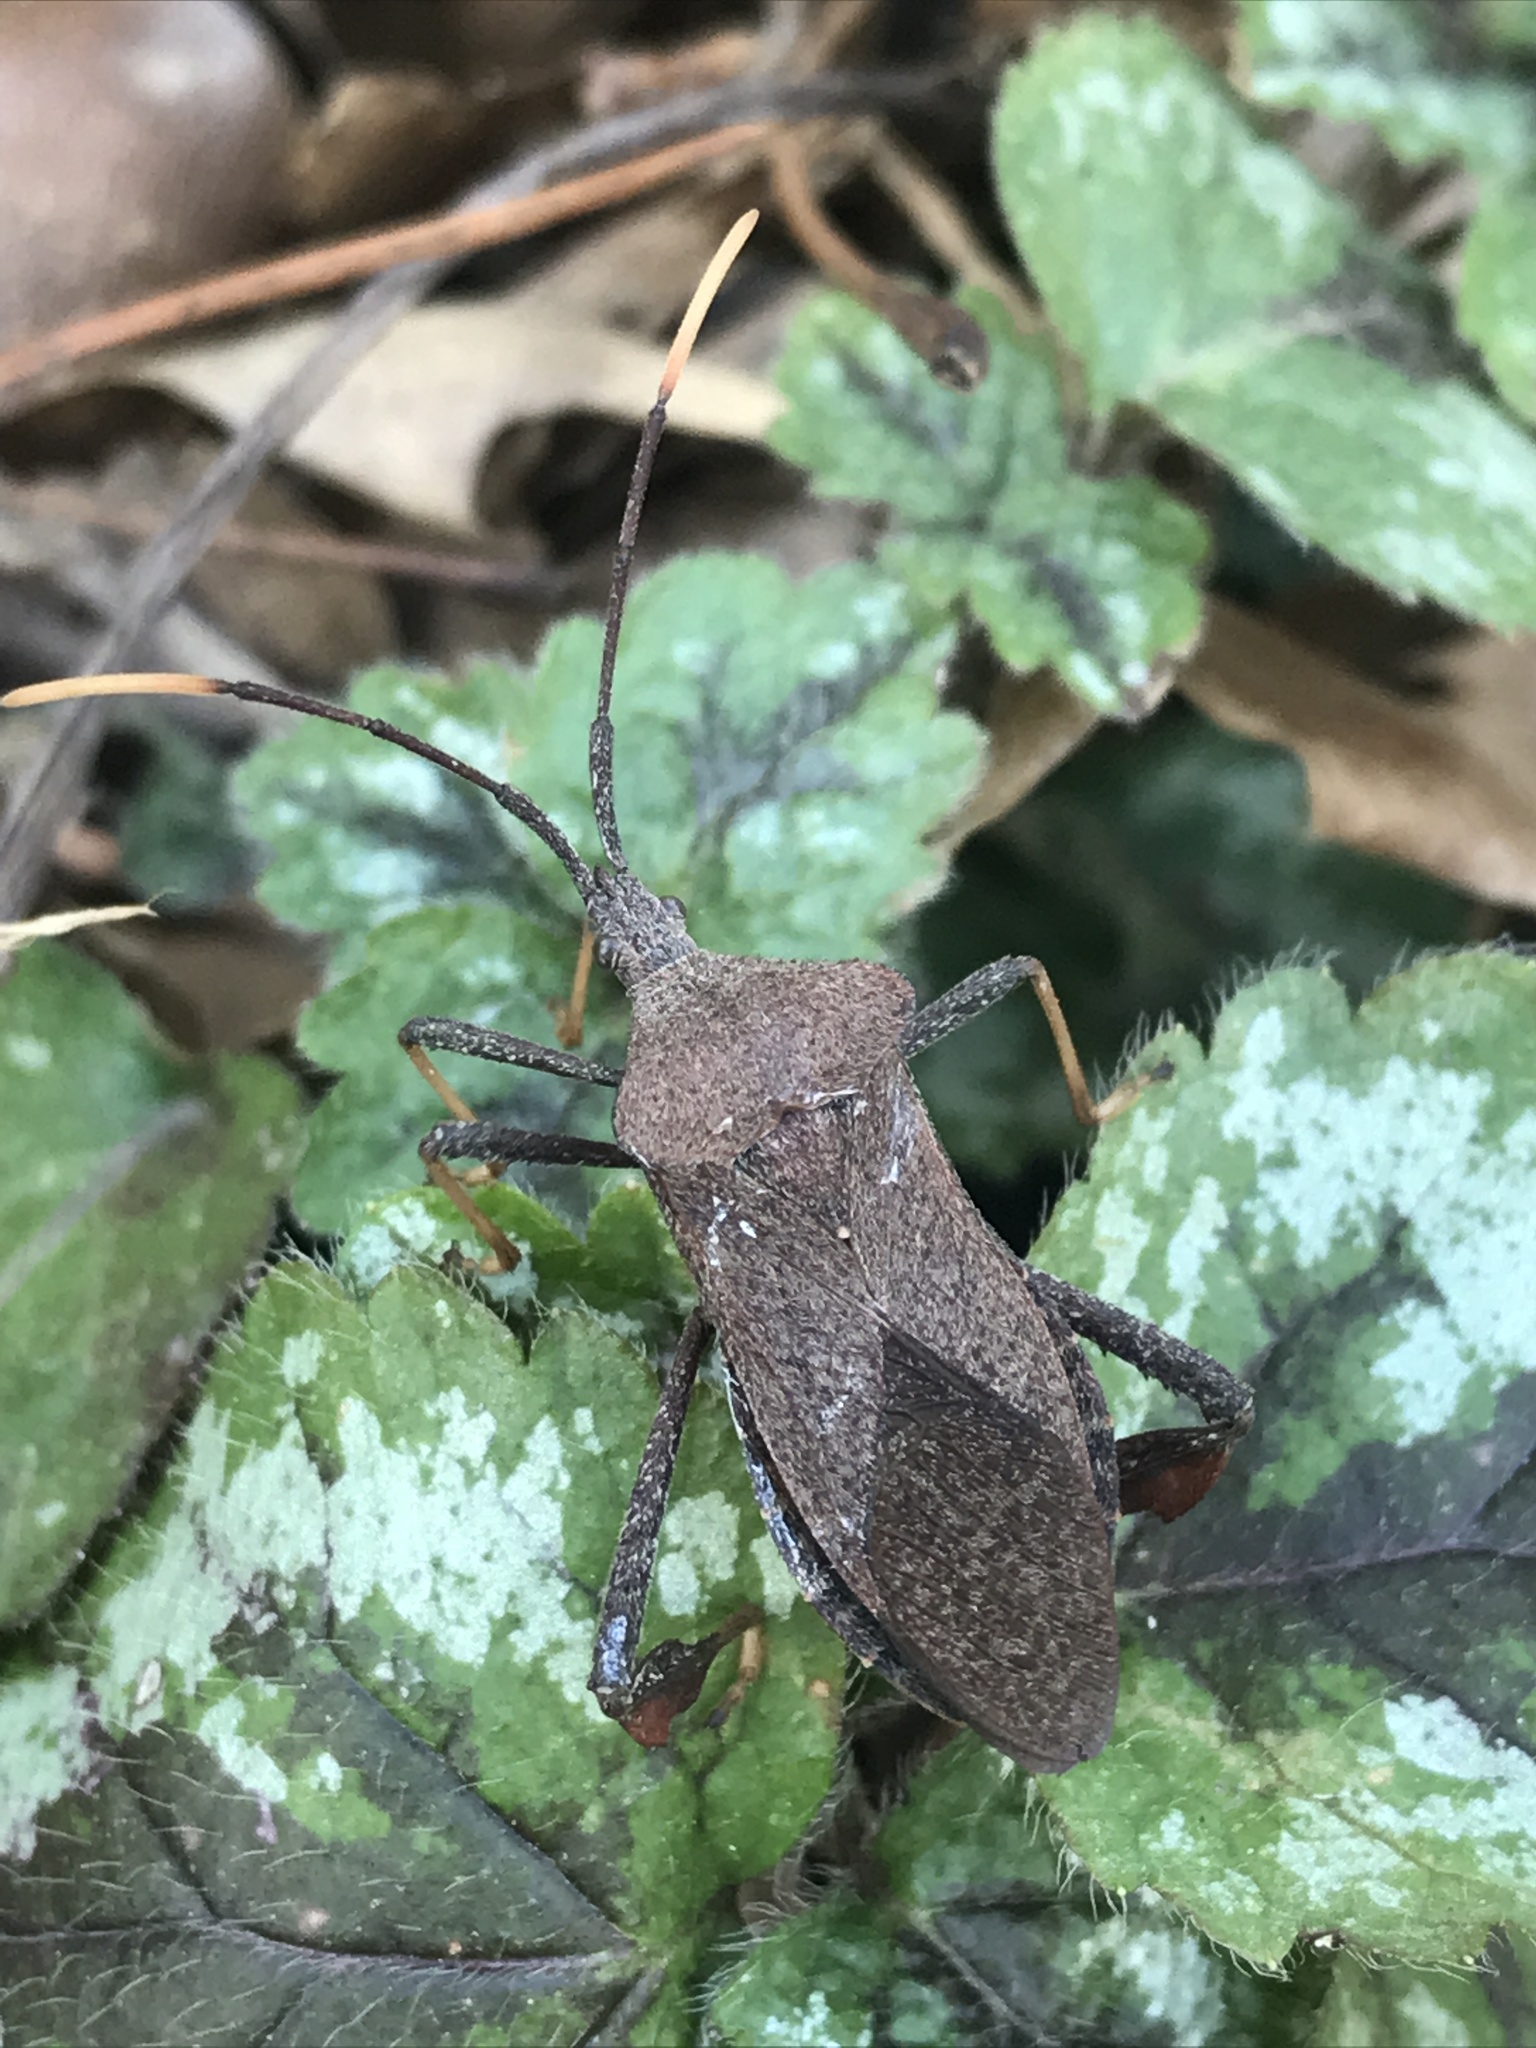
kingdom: Animalia
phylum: Arthropoda
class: Insecta
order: Hemiptera
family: Coreidae
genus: Acanthocephala
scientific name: Acanthocephala terminalis
